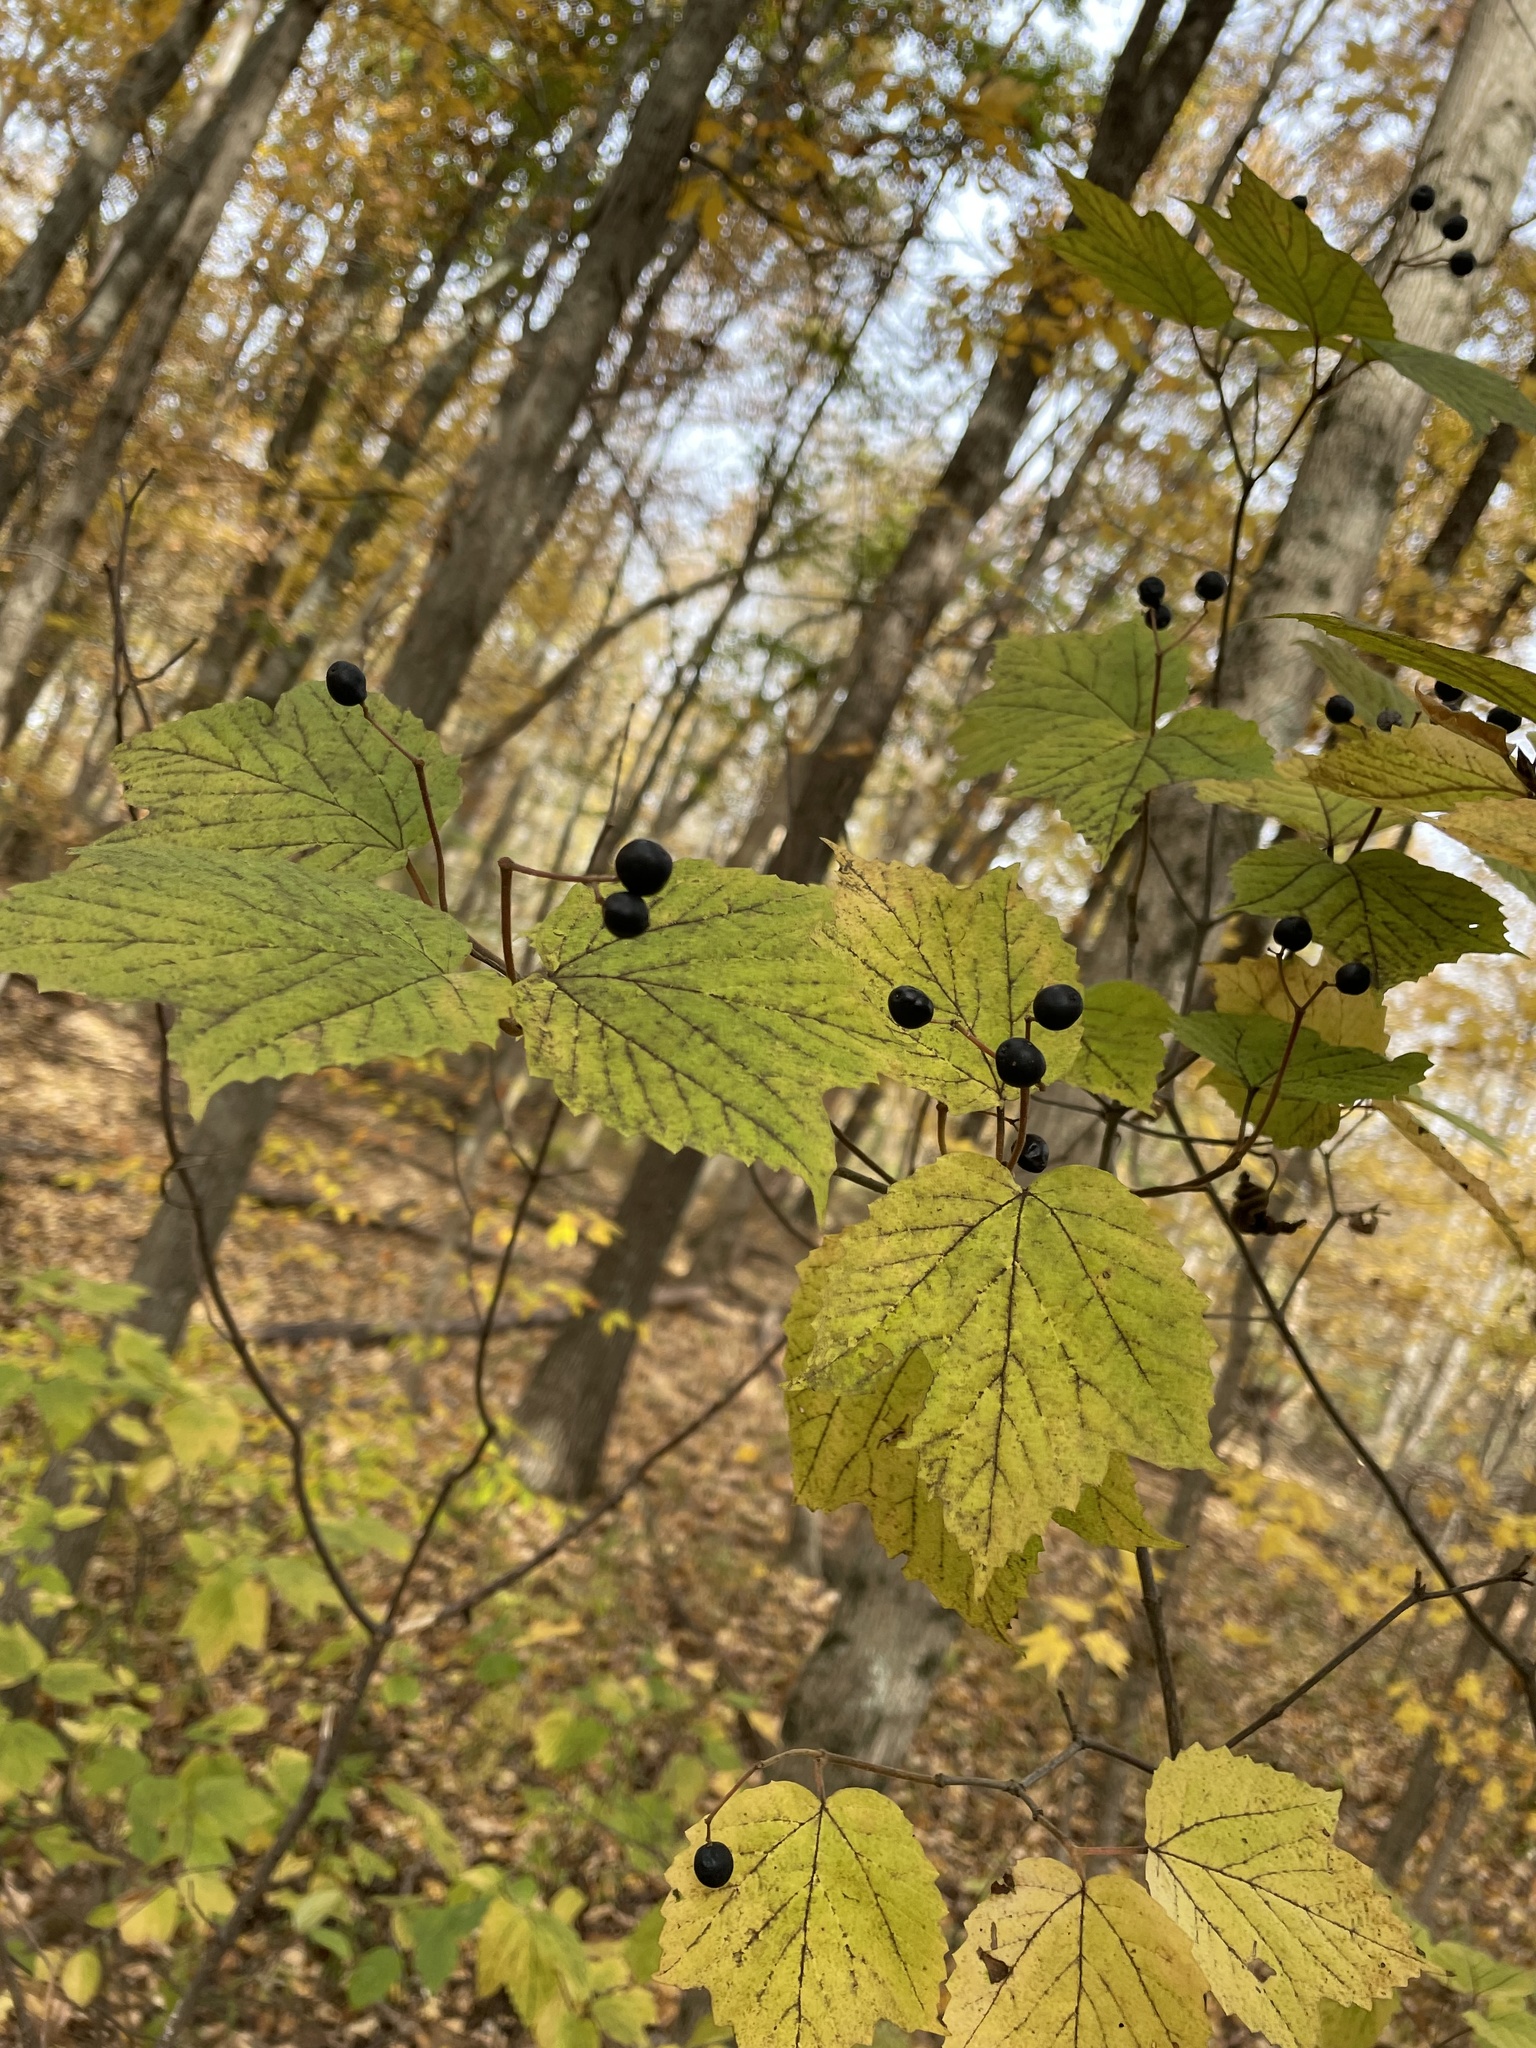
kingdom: Plantae
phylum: Tracheophyta
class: Magnoliopsida
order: Dipsacales
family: Viburnaceae
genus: Viburnum
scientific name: Viburnum acerifolium
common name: Dockmackie
